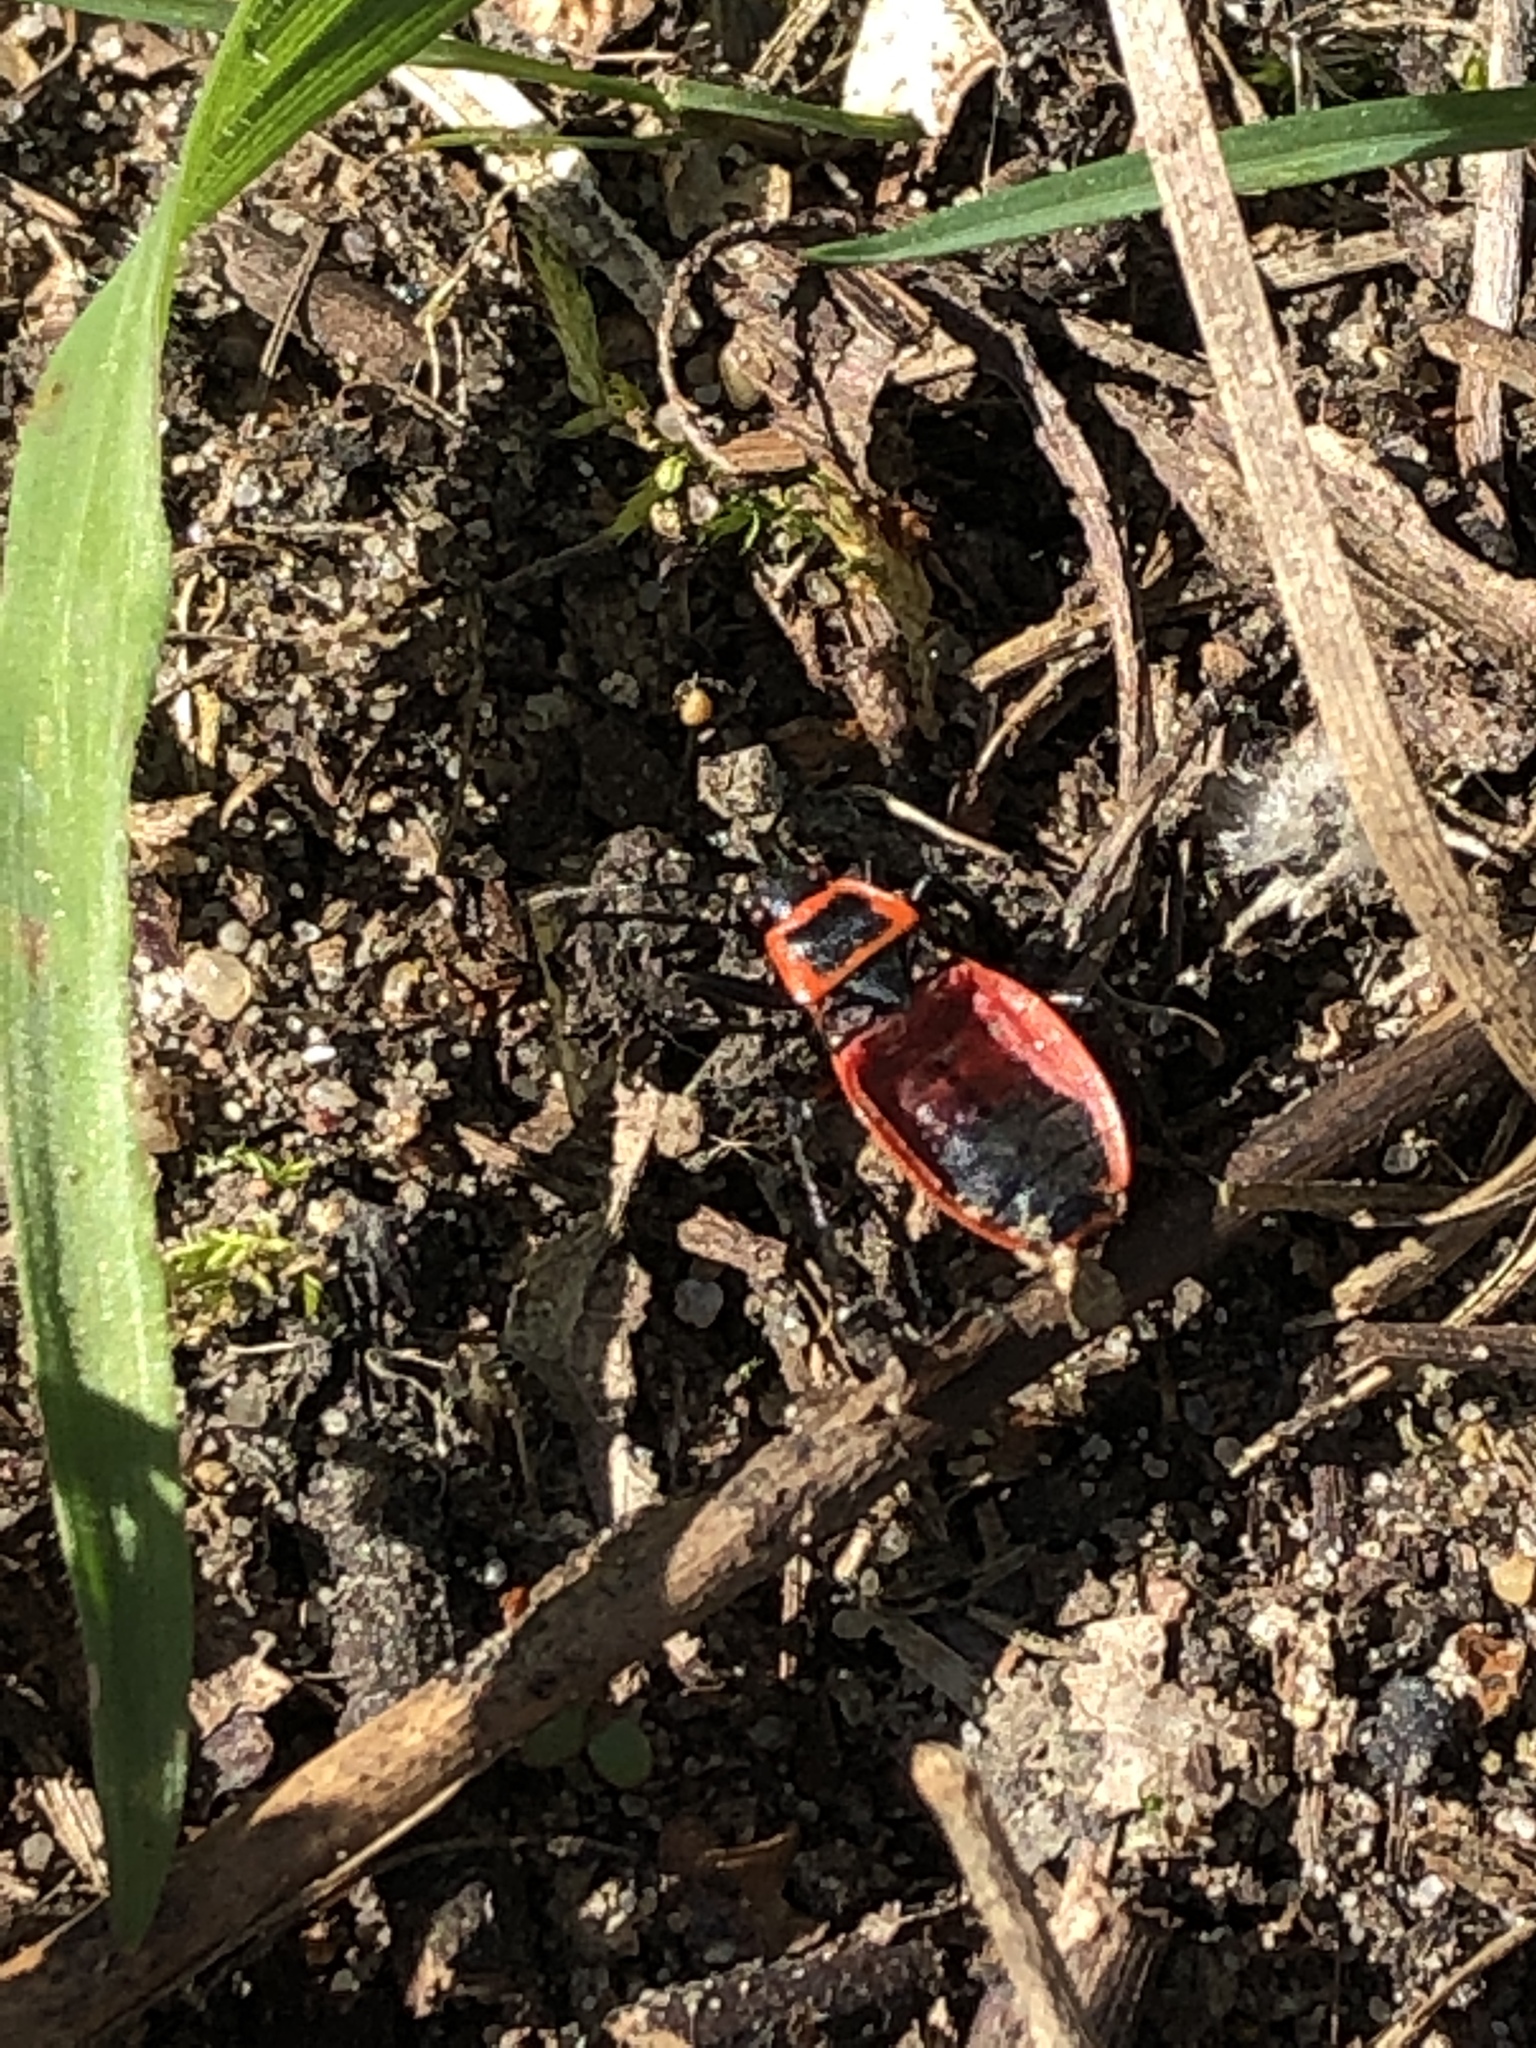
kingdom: Animalia
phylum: Arthropoda
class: Insecta
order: Hemiptera
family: Pyrrhocoridae
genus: Pyrrhocoris
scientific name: Pyrrhocoris apterus
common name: Firebug
